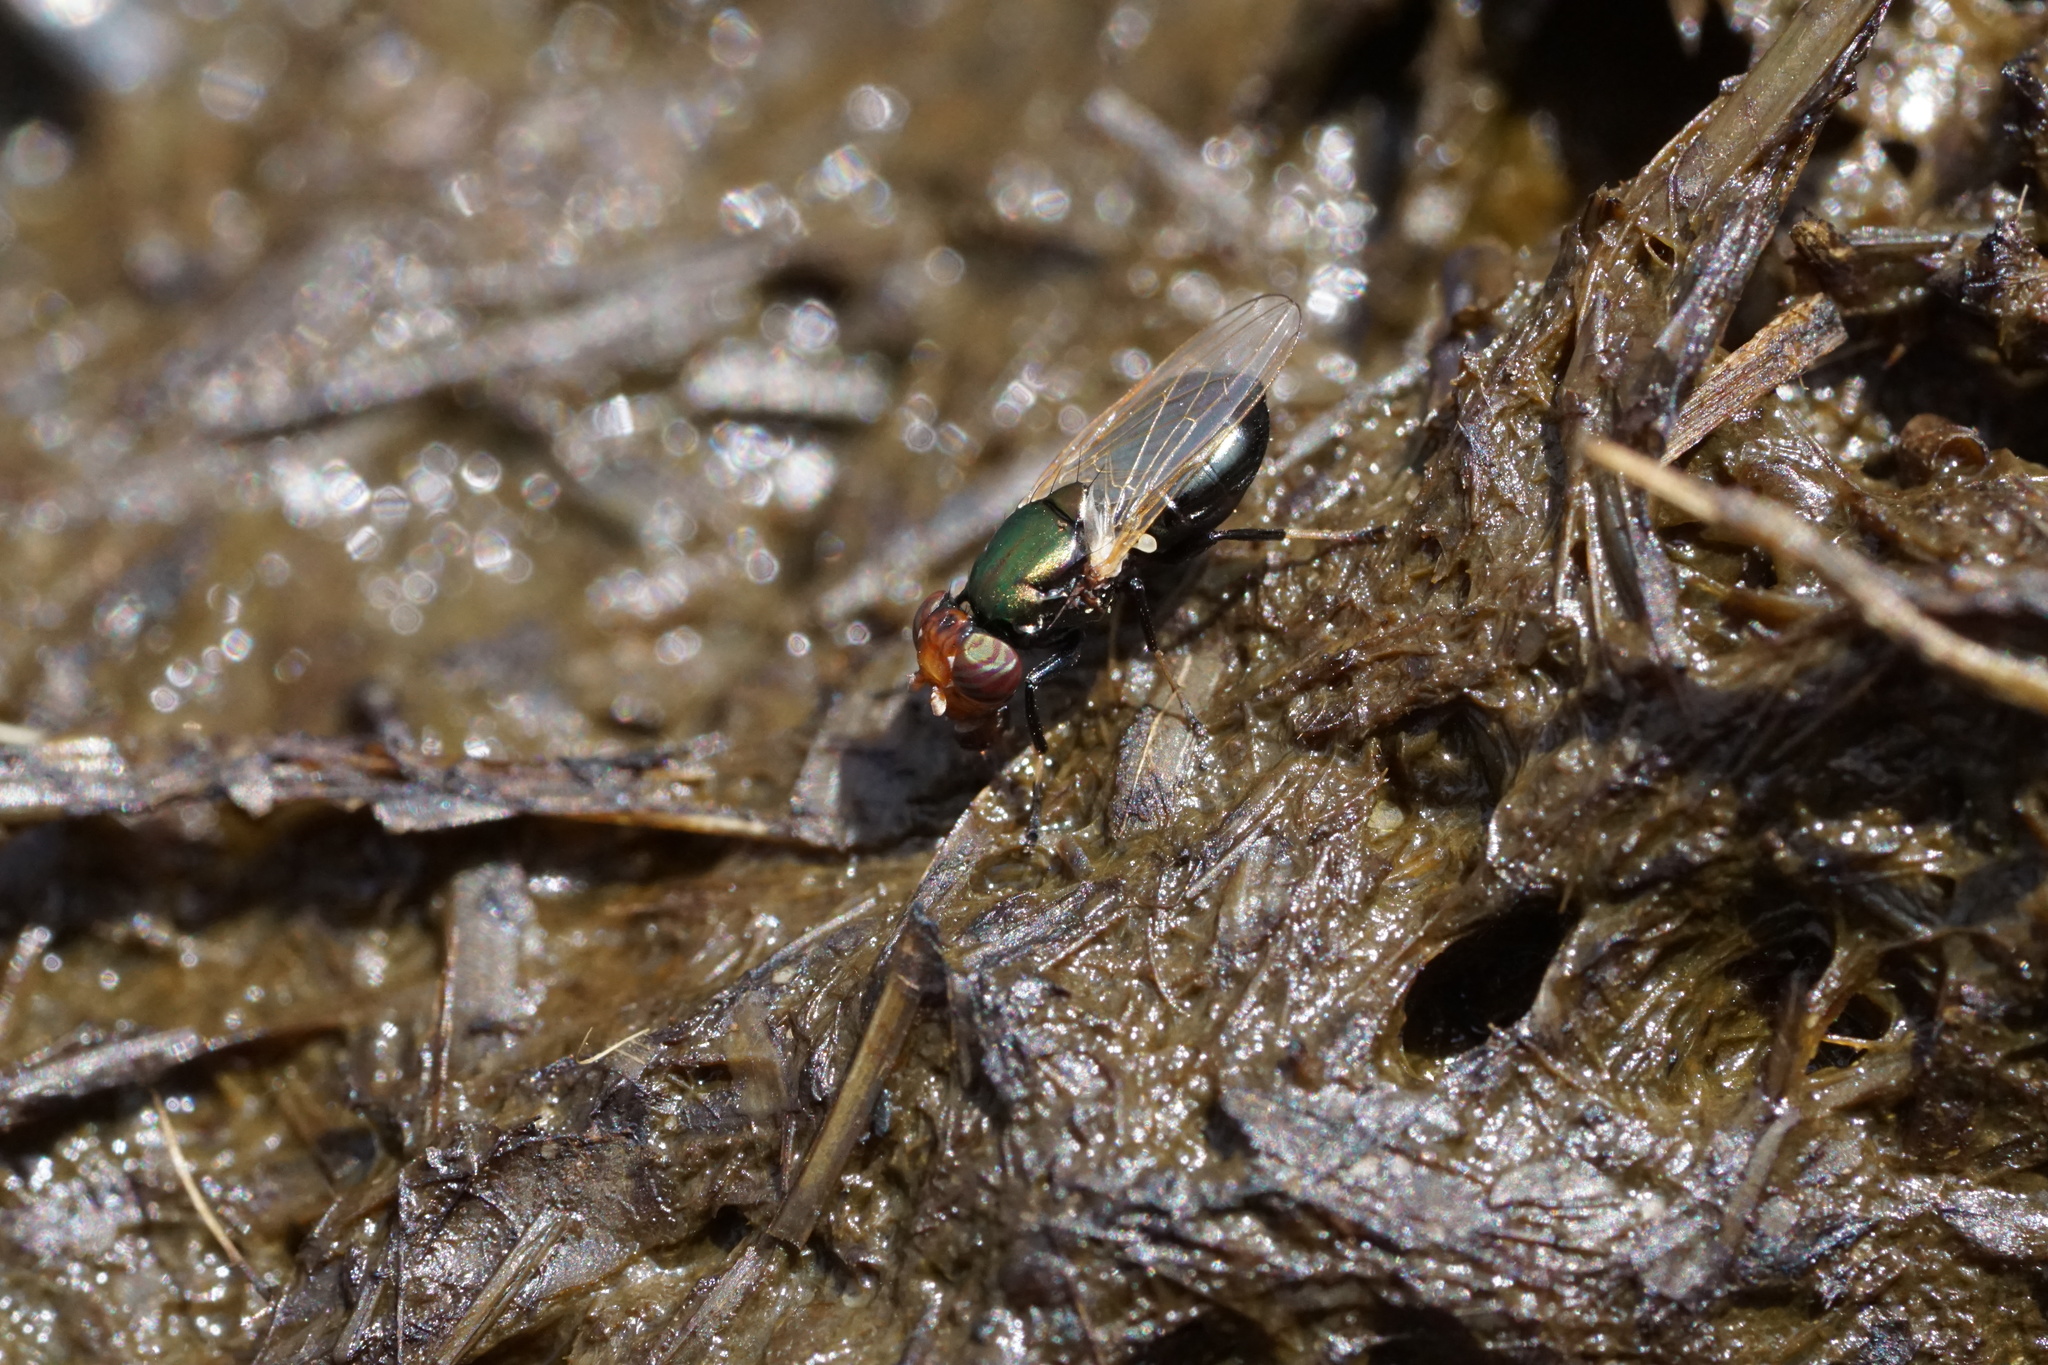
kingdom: Animalia
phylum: Arthropoda
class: Insecta
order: Diptera
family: Ulidiidae
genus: Physiphora
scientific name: Physiphora alceae
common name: Picture-winged fly
